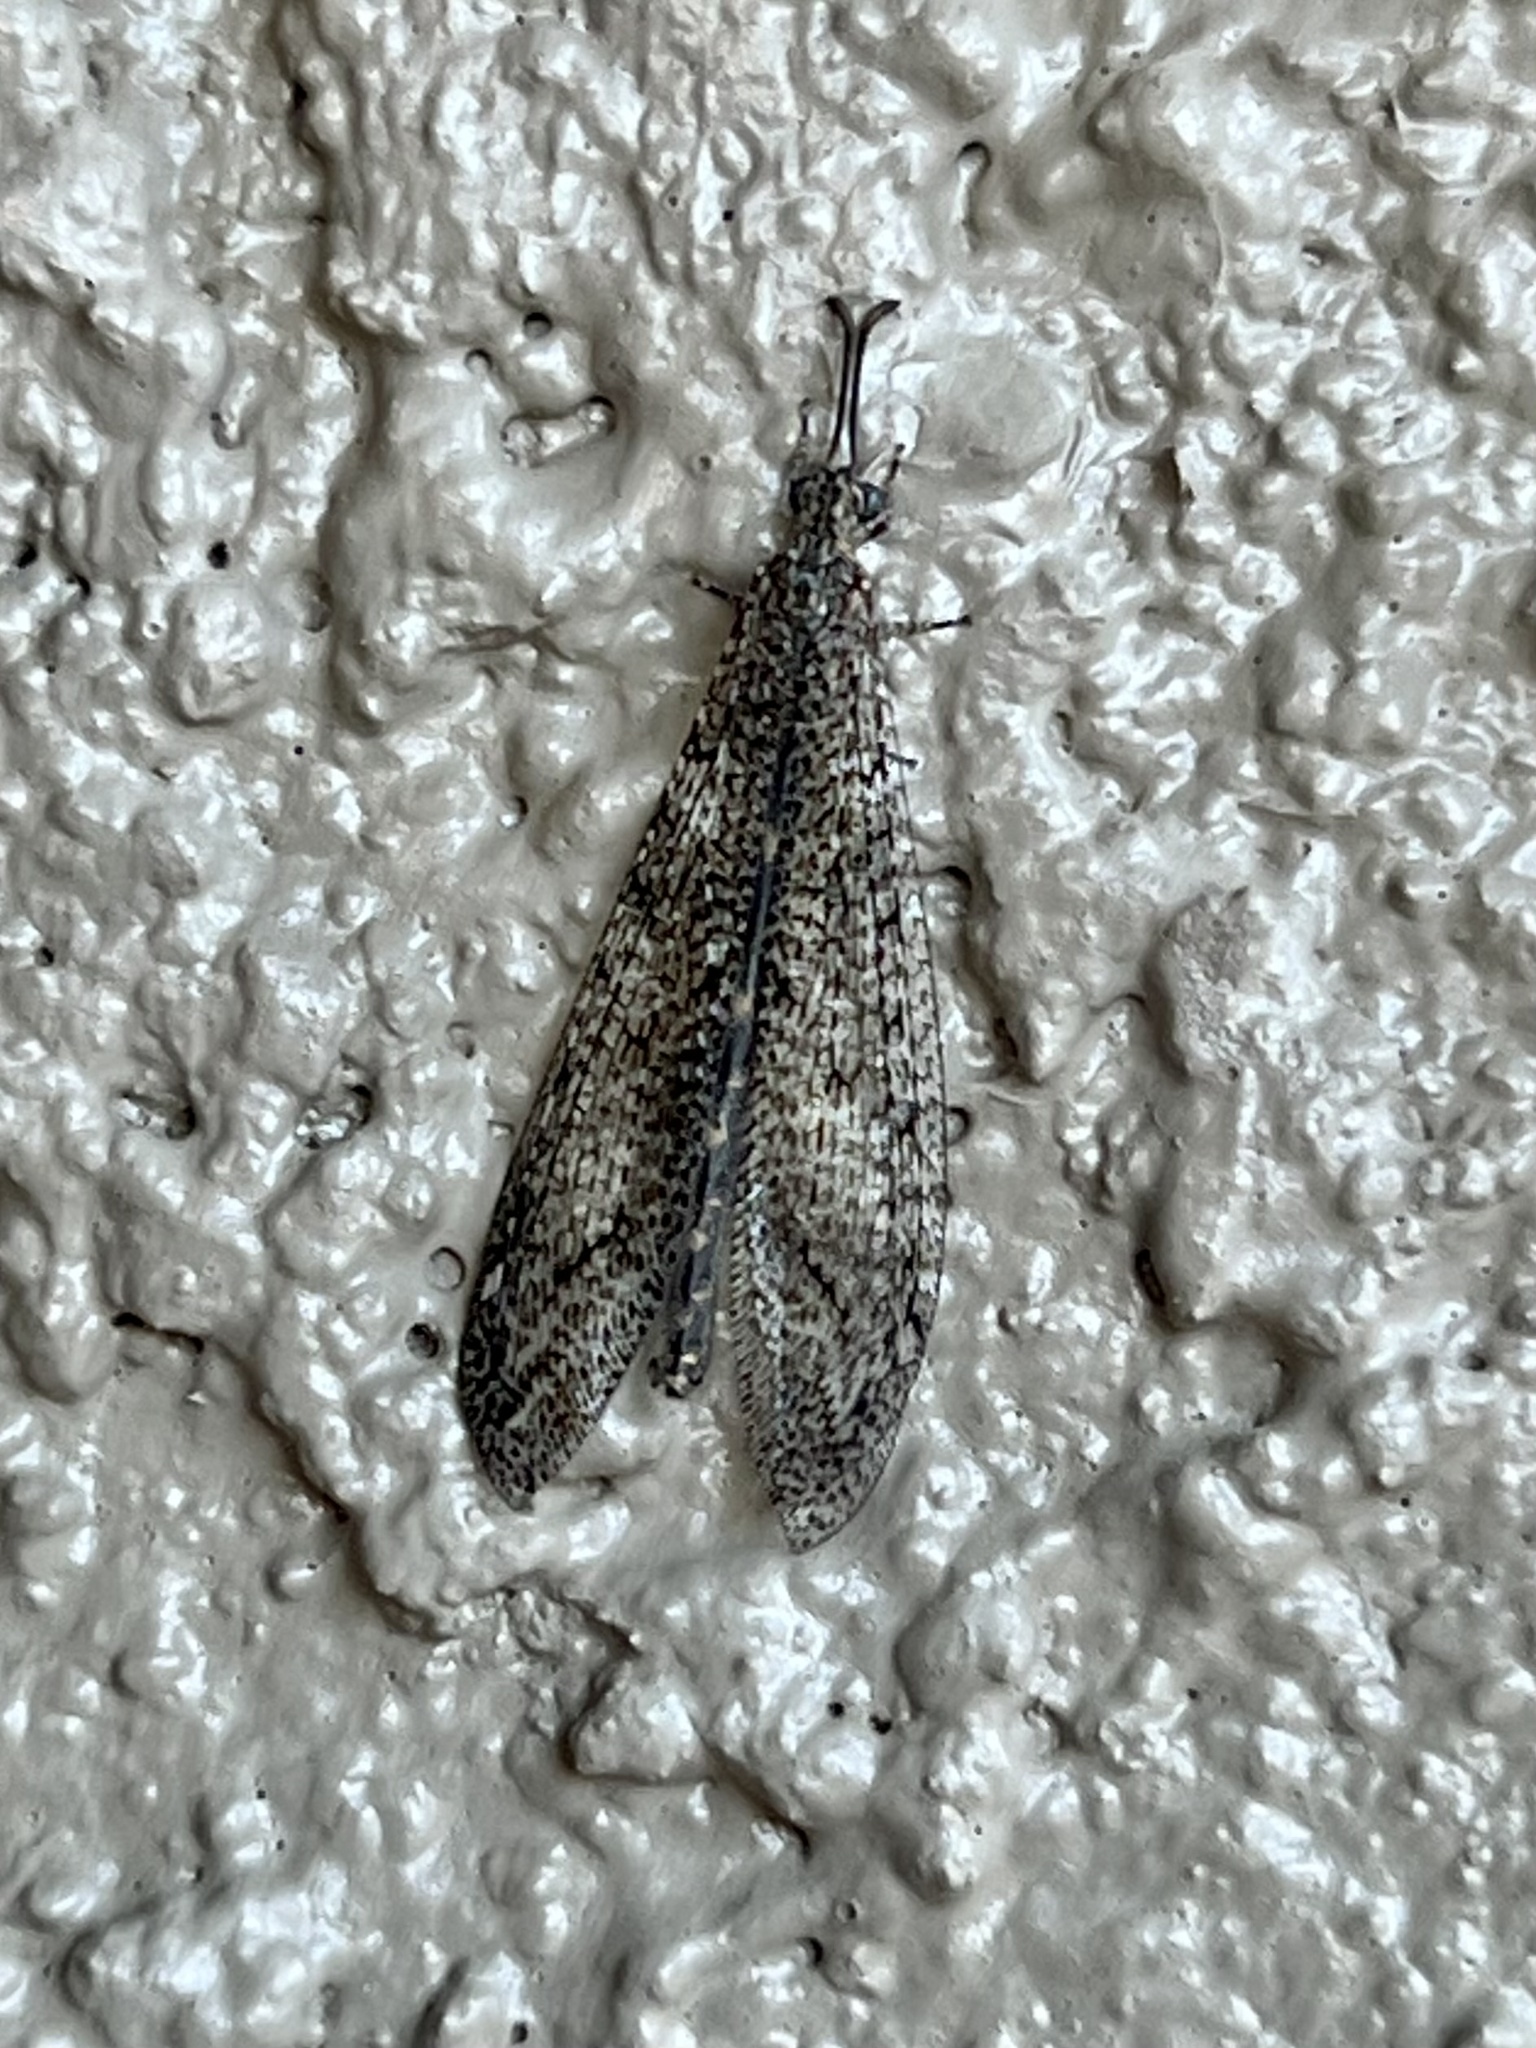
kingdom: Animalia
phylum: Arthropoda
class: Insecta
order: Neuroptera
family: Myrmeleontidae
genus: Atricholeon
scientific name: Atricholeon tuberculatus
